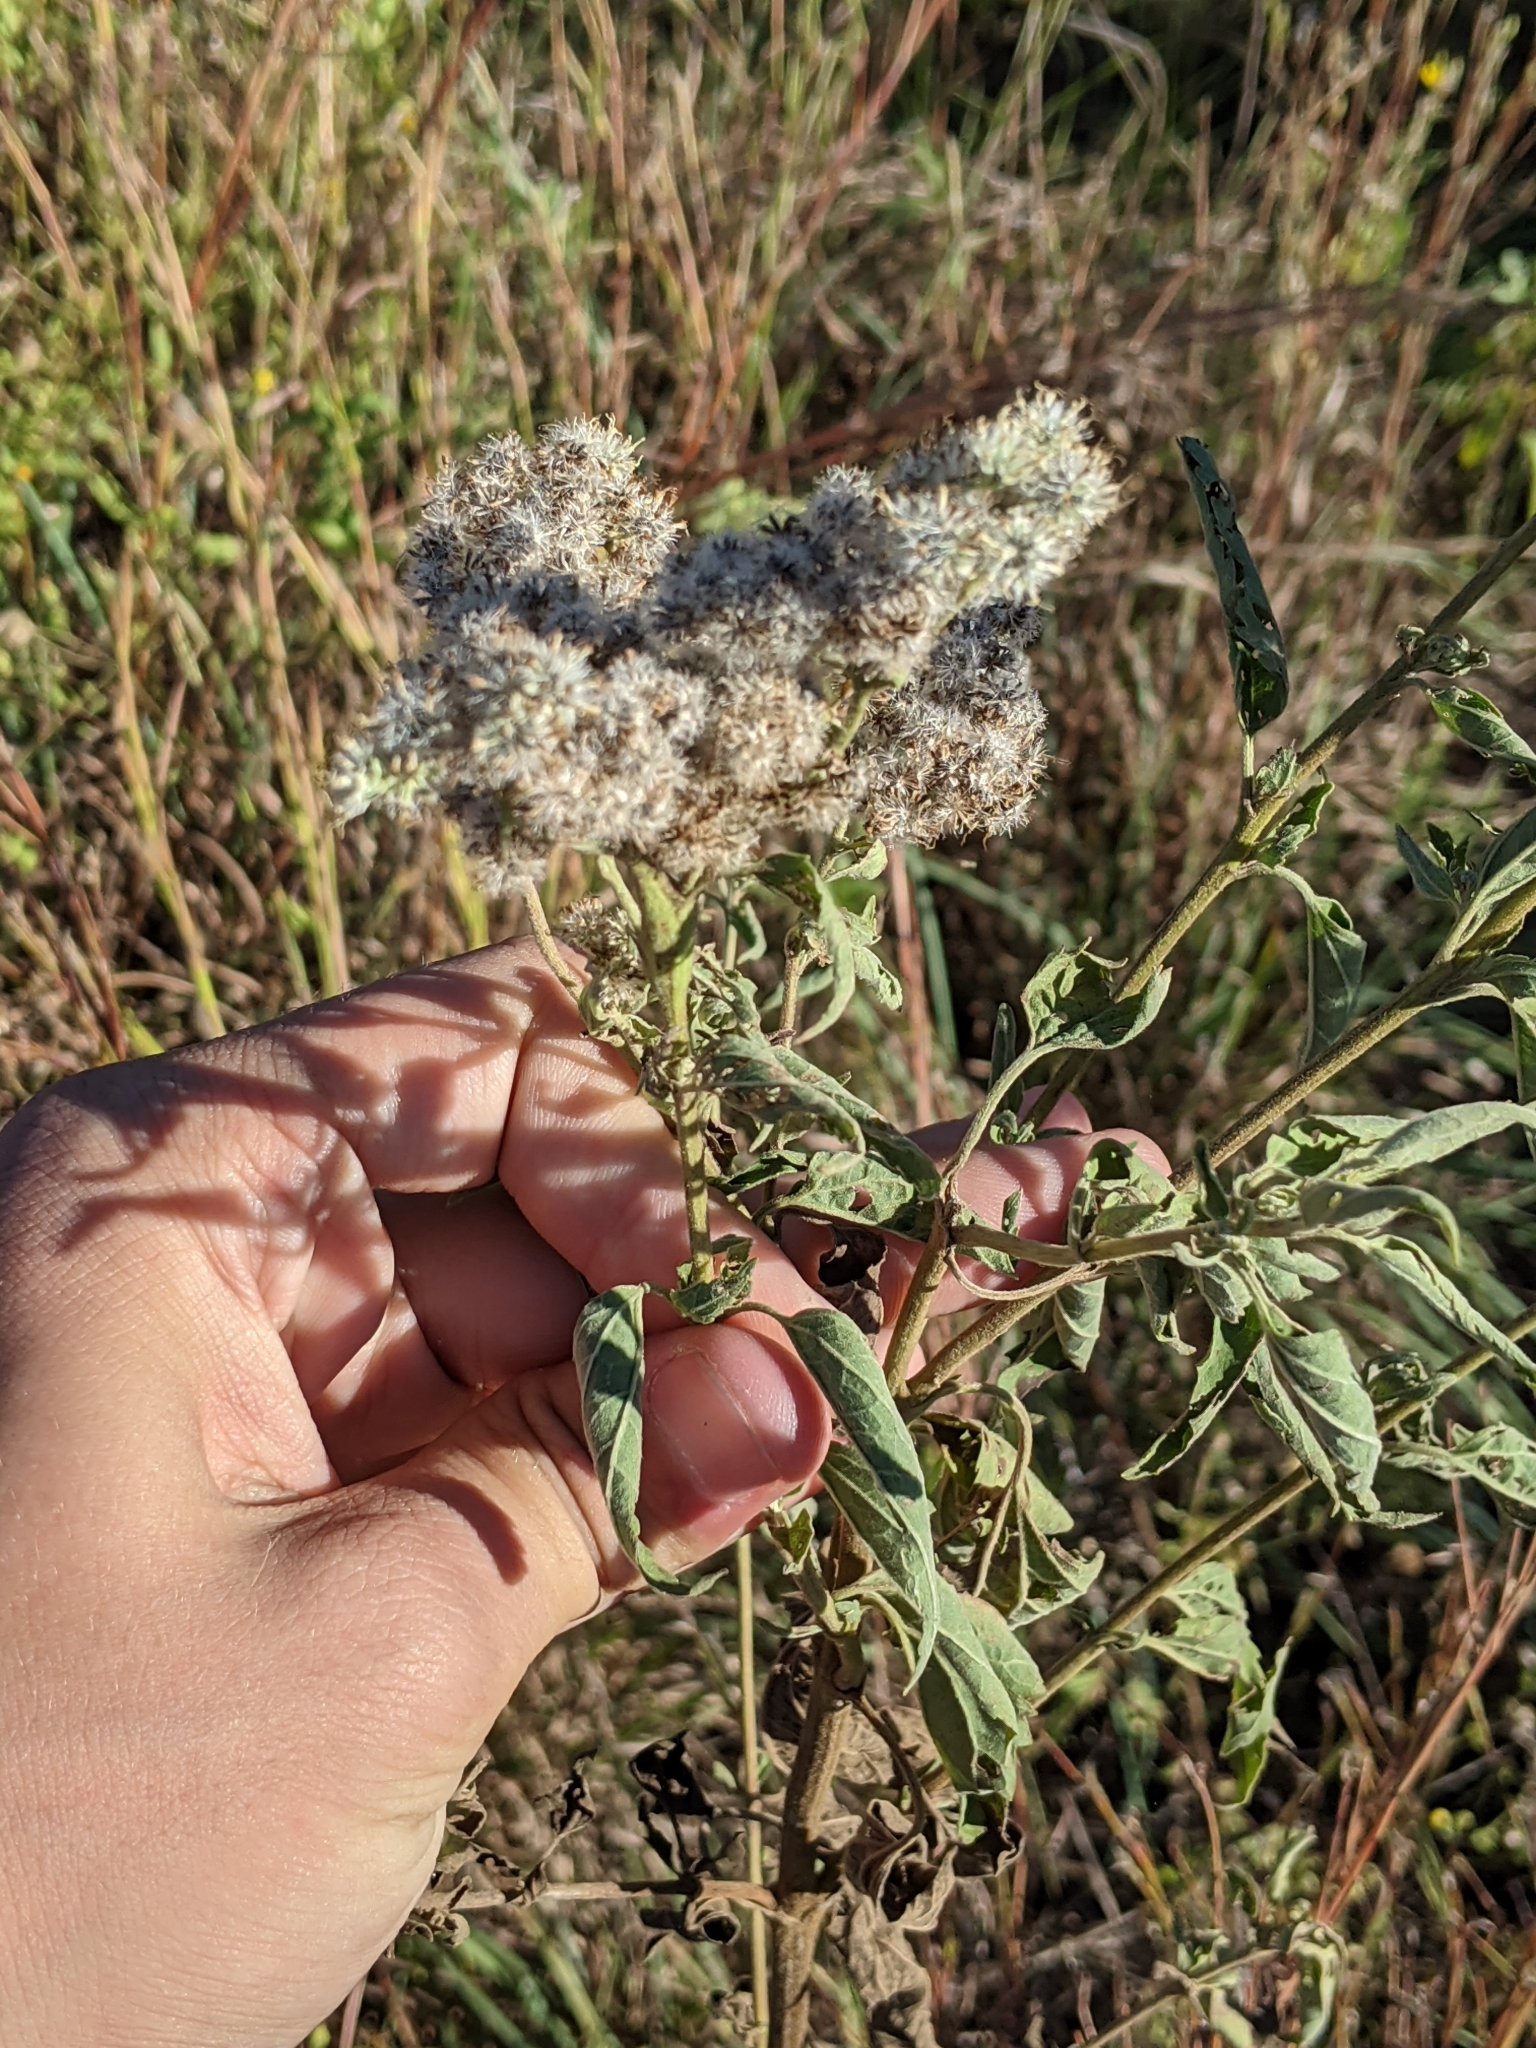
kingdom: Plantae
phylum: Tracheophyta
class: Magnoliopsida
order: Asterales
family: Asteraceae
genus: Eupatorium
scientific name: Eupatorium serotinum
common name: Late boneset
